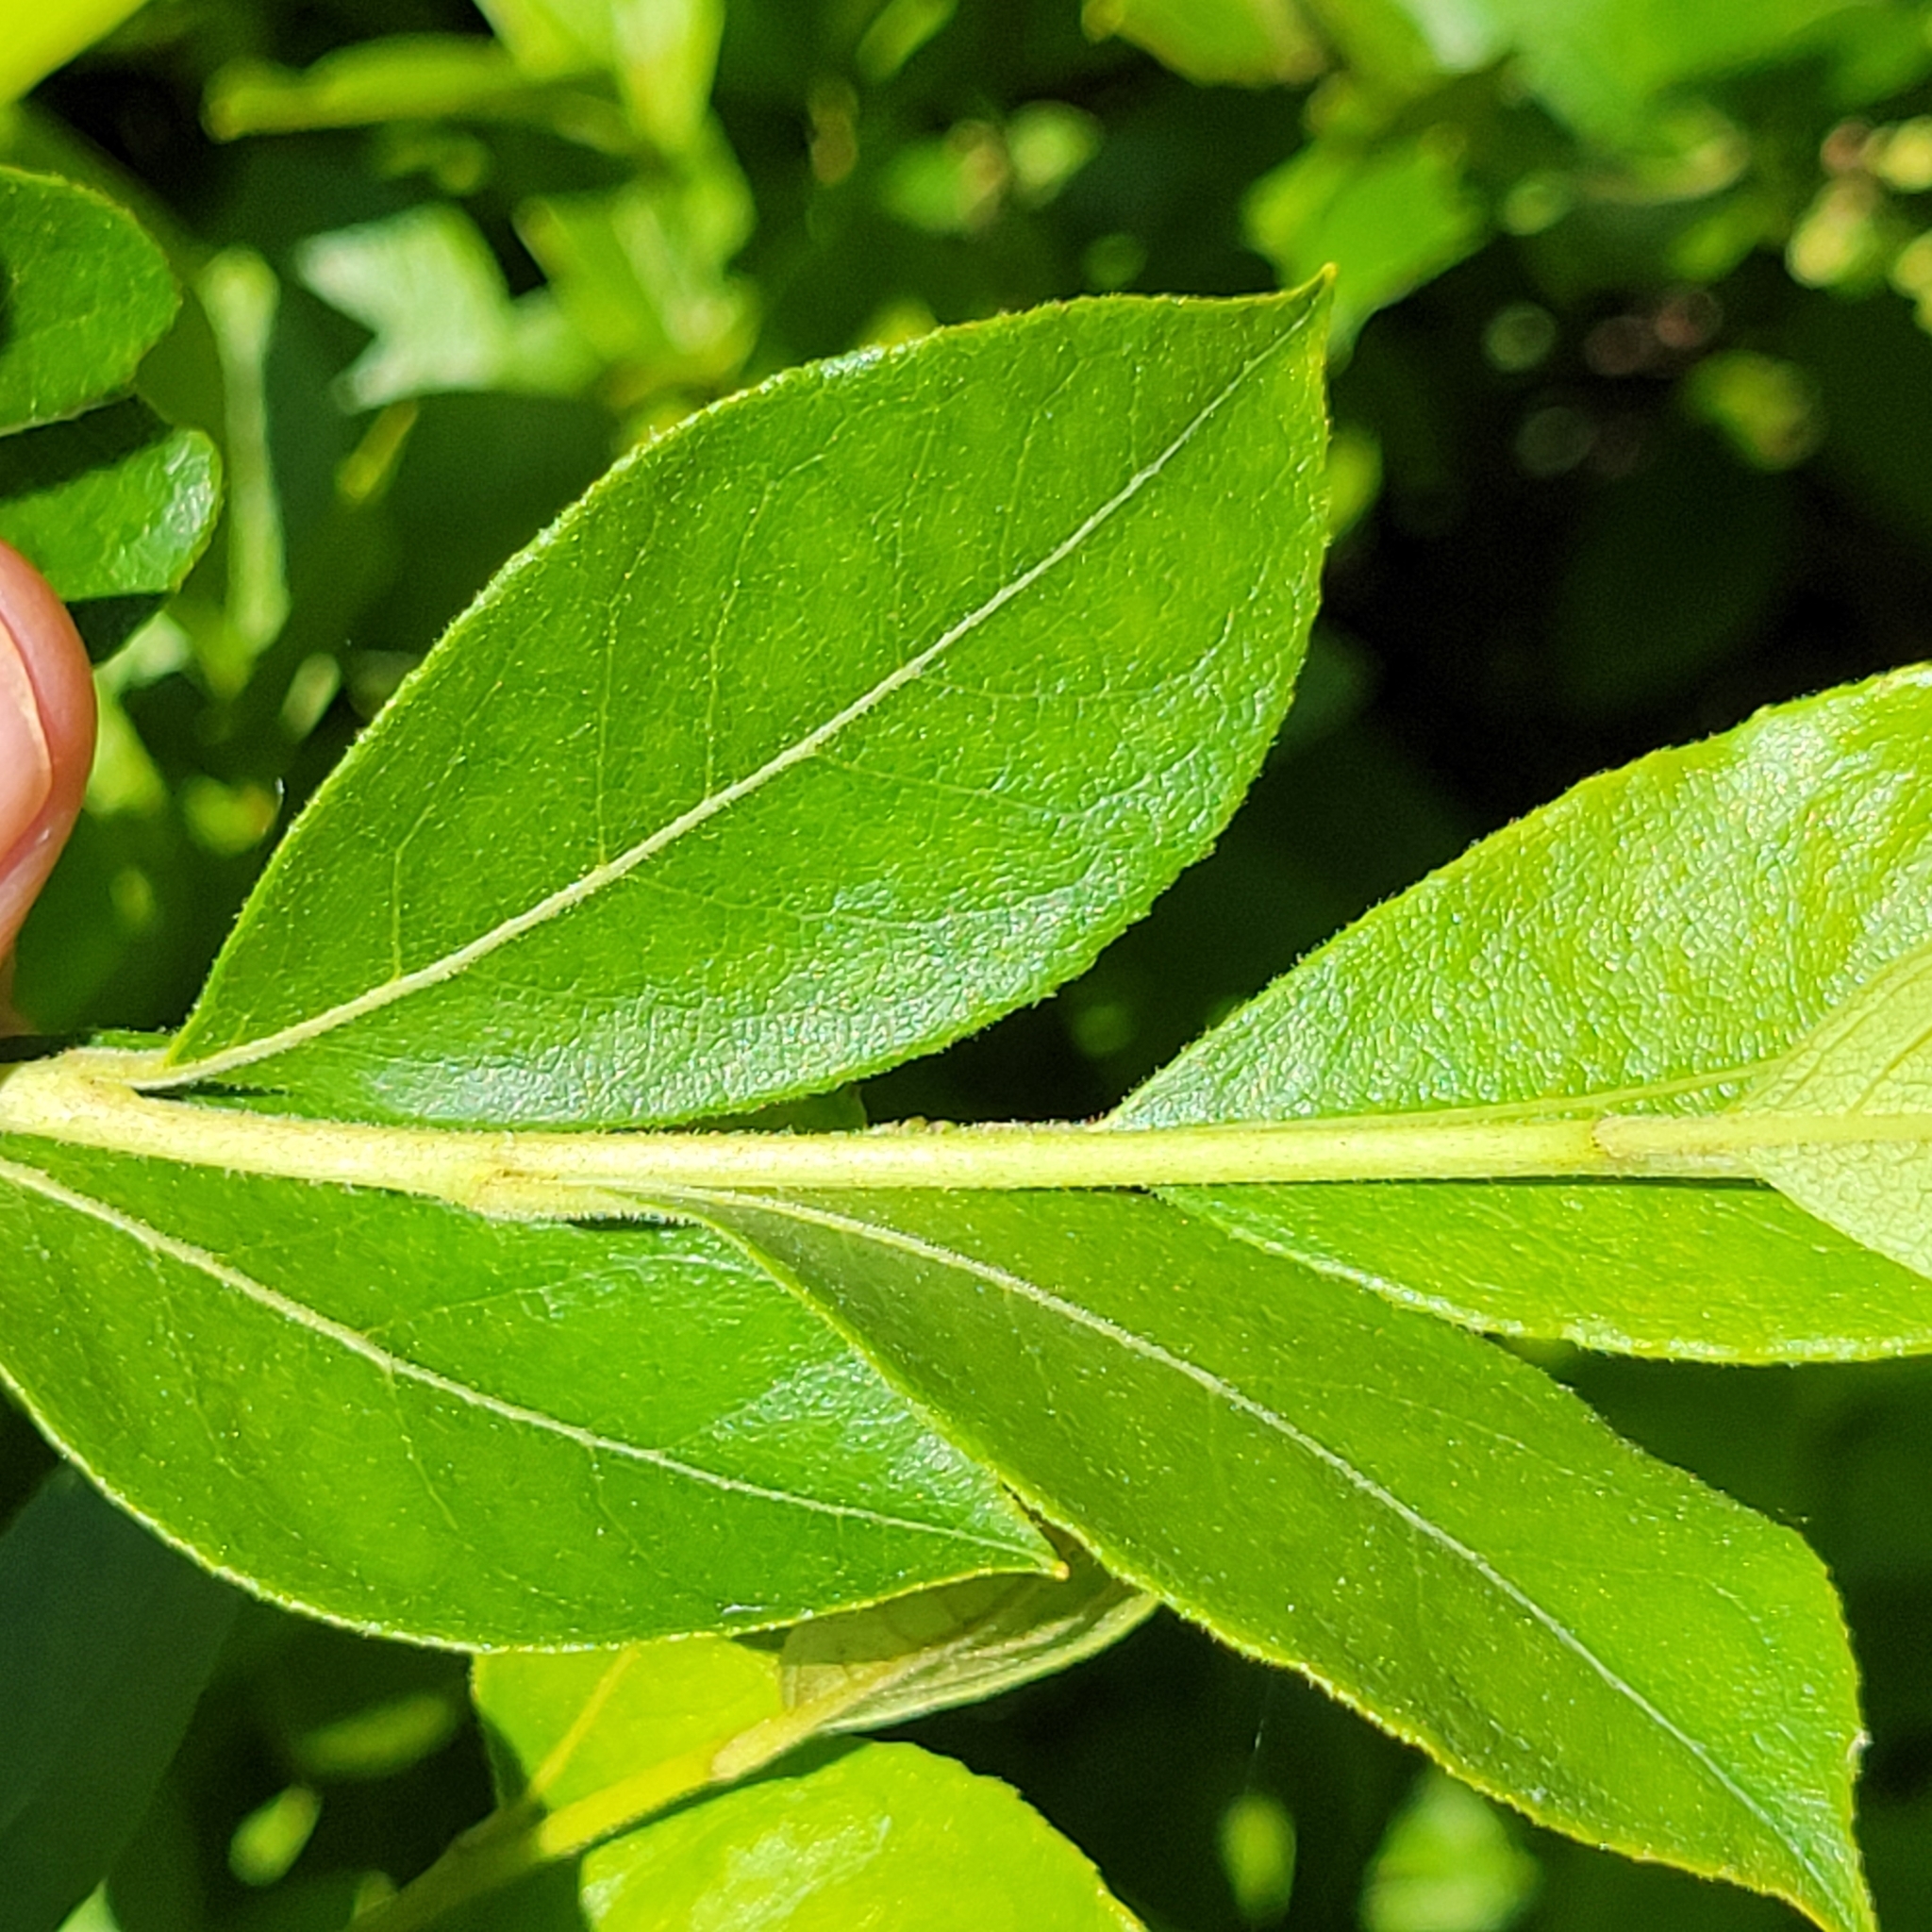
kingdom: Plantae
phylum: Tracheophyta
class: Magnoliopsida
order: Ericales
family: Ericaceae
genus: Lyonia
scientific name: Lyonia ligustrina
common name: Maleberry
